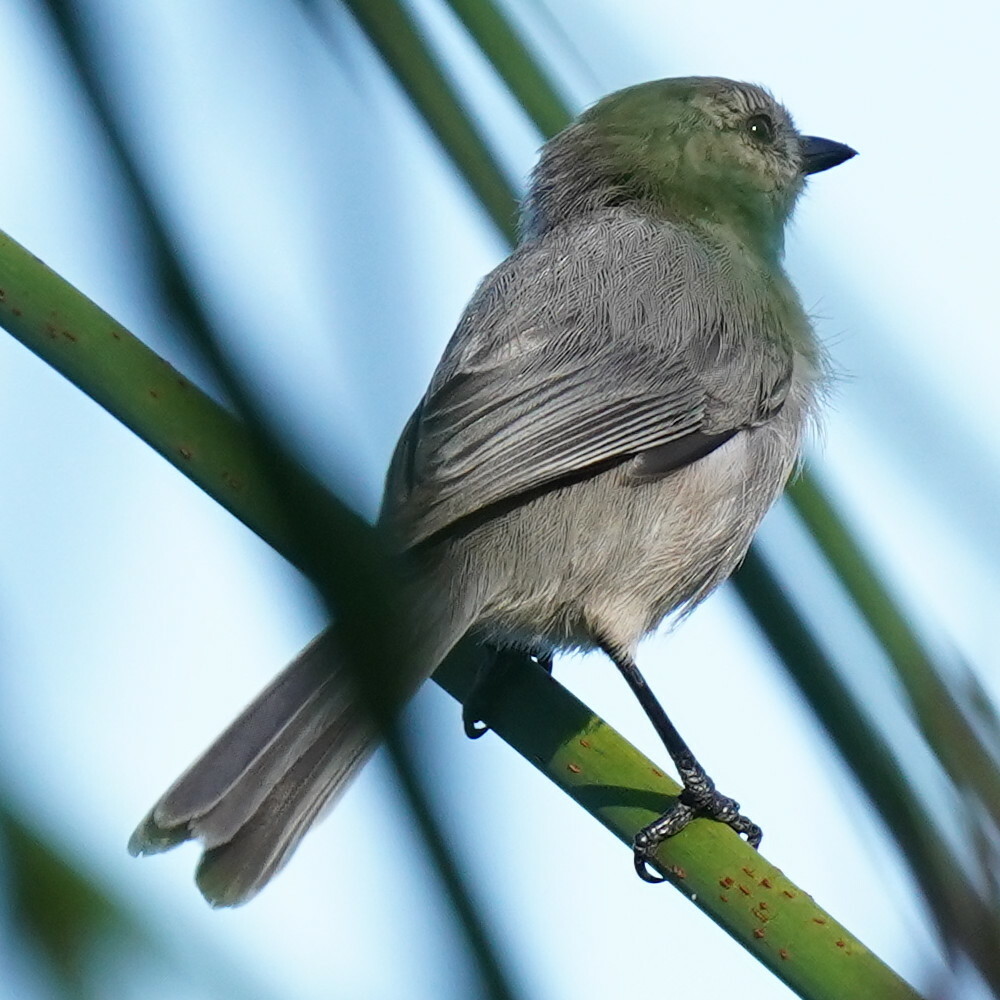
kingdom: Animalia
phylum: Chordata
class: Aves
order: Passeriformes
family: Aegithalidae
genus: Psaltriparus
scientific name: Psaltriparus minimus
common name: American bushtit
